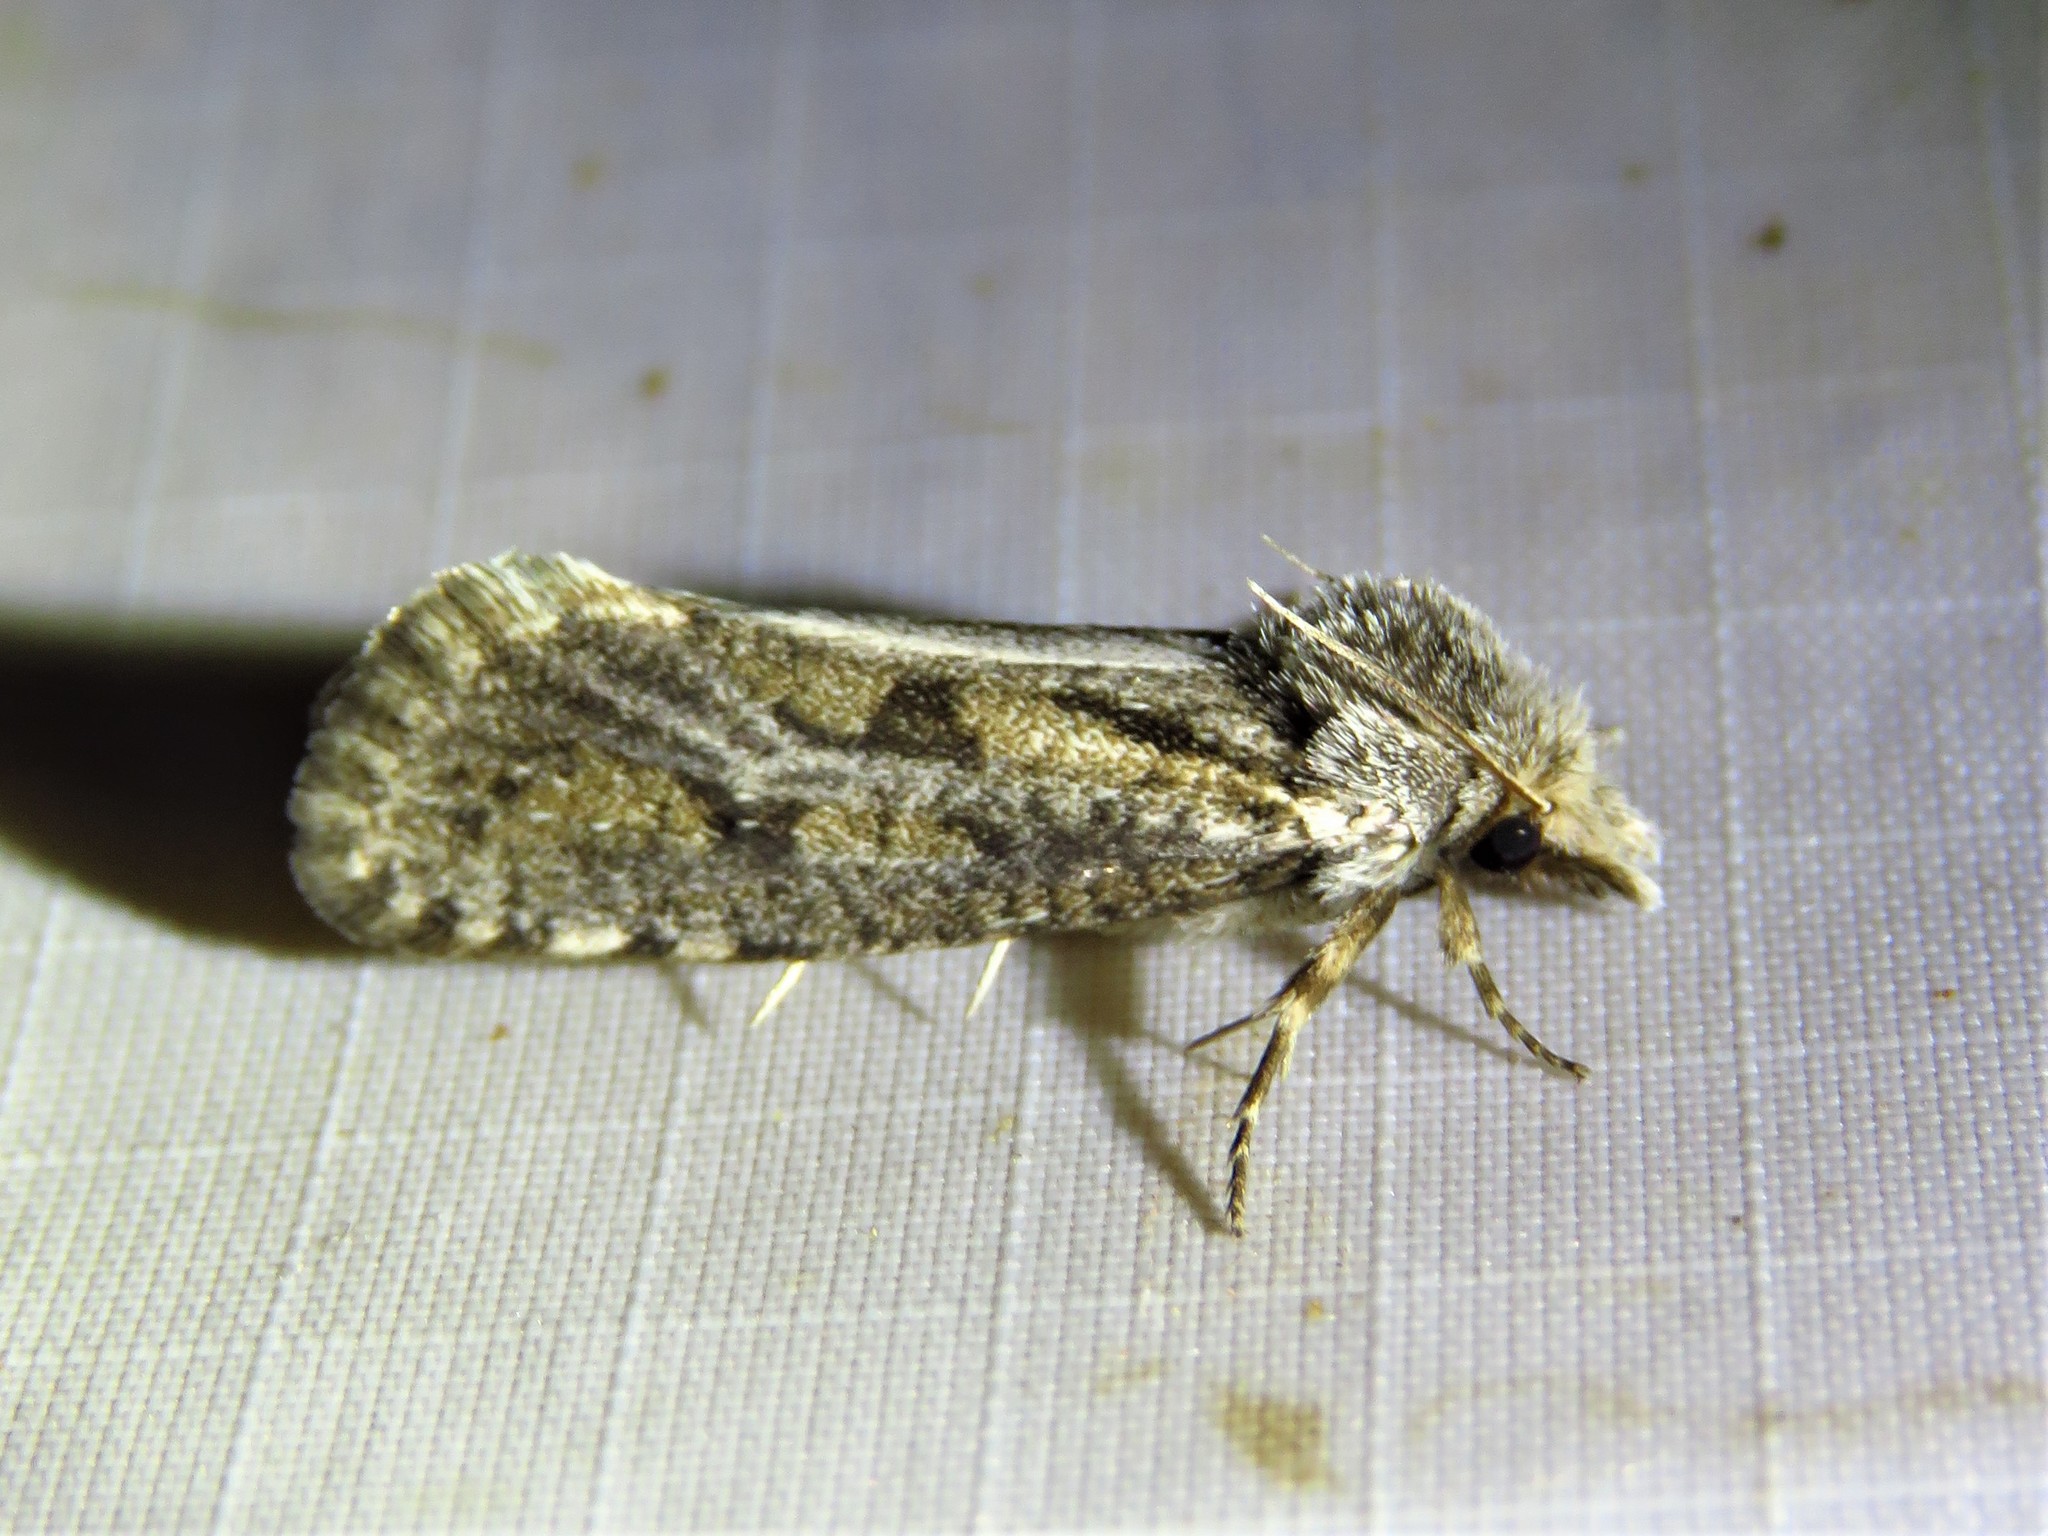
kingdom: Animalia
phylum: Arthropoda
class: Insecta
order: Lepidoptera
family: Tineidae
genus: Acrolophus
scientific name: Acrolophus popeanella
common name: Clemens' grass tubeworm moth
